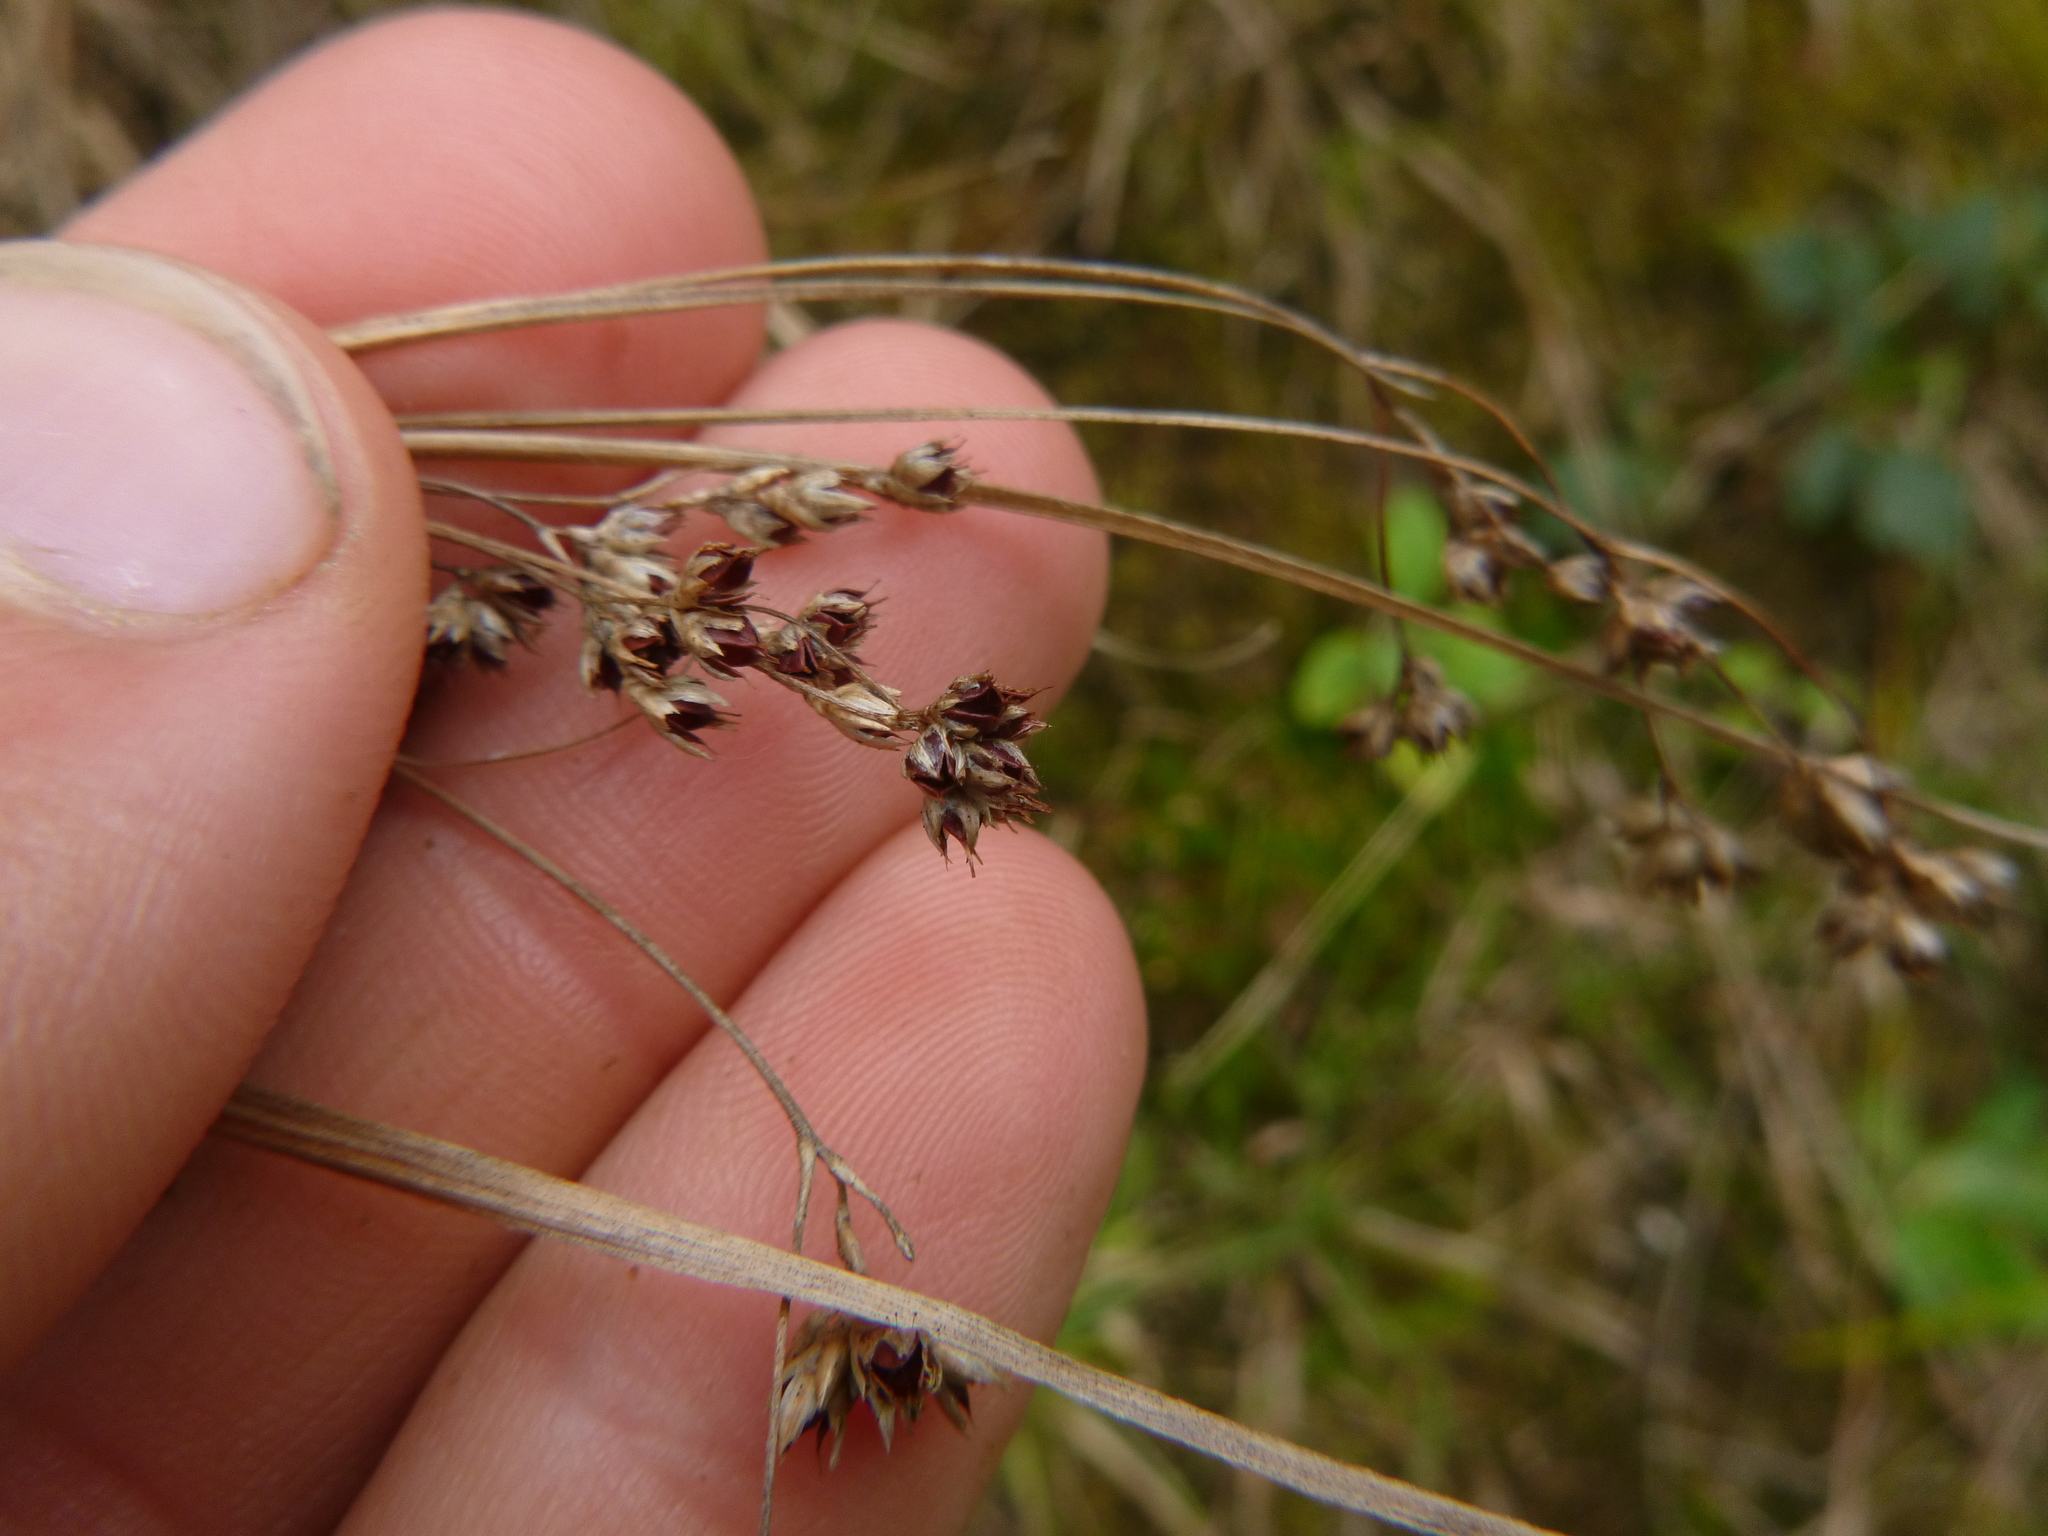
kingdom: Plantae
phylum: Tracheophyta
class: Liliopsida
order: Poales
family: Juncaceae
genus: Luzula
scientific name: Luzula luzuloides
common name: White wood-rush
